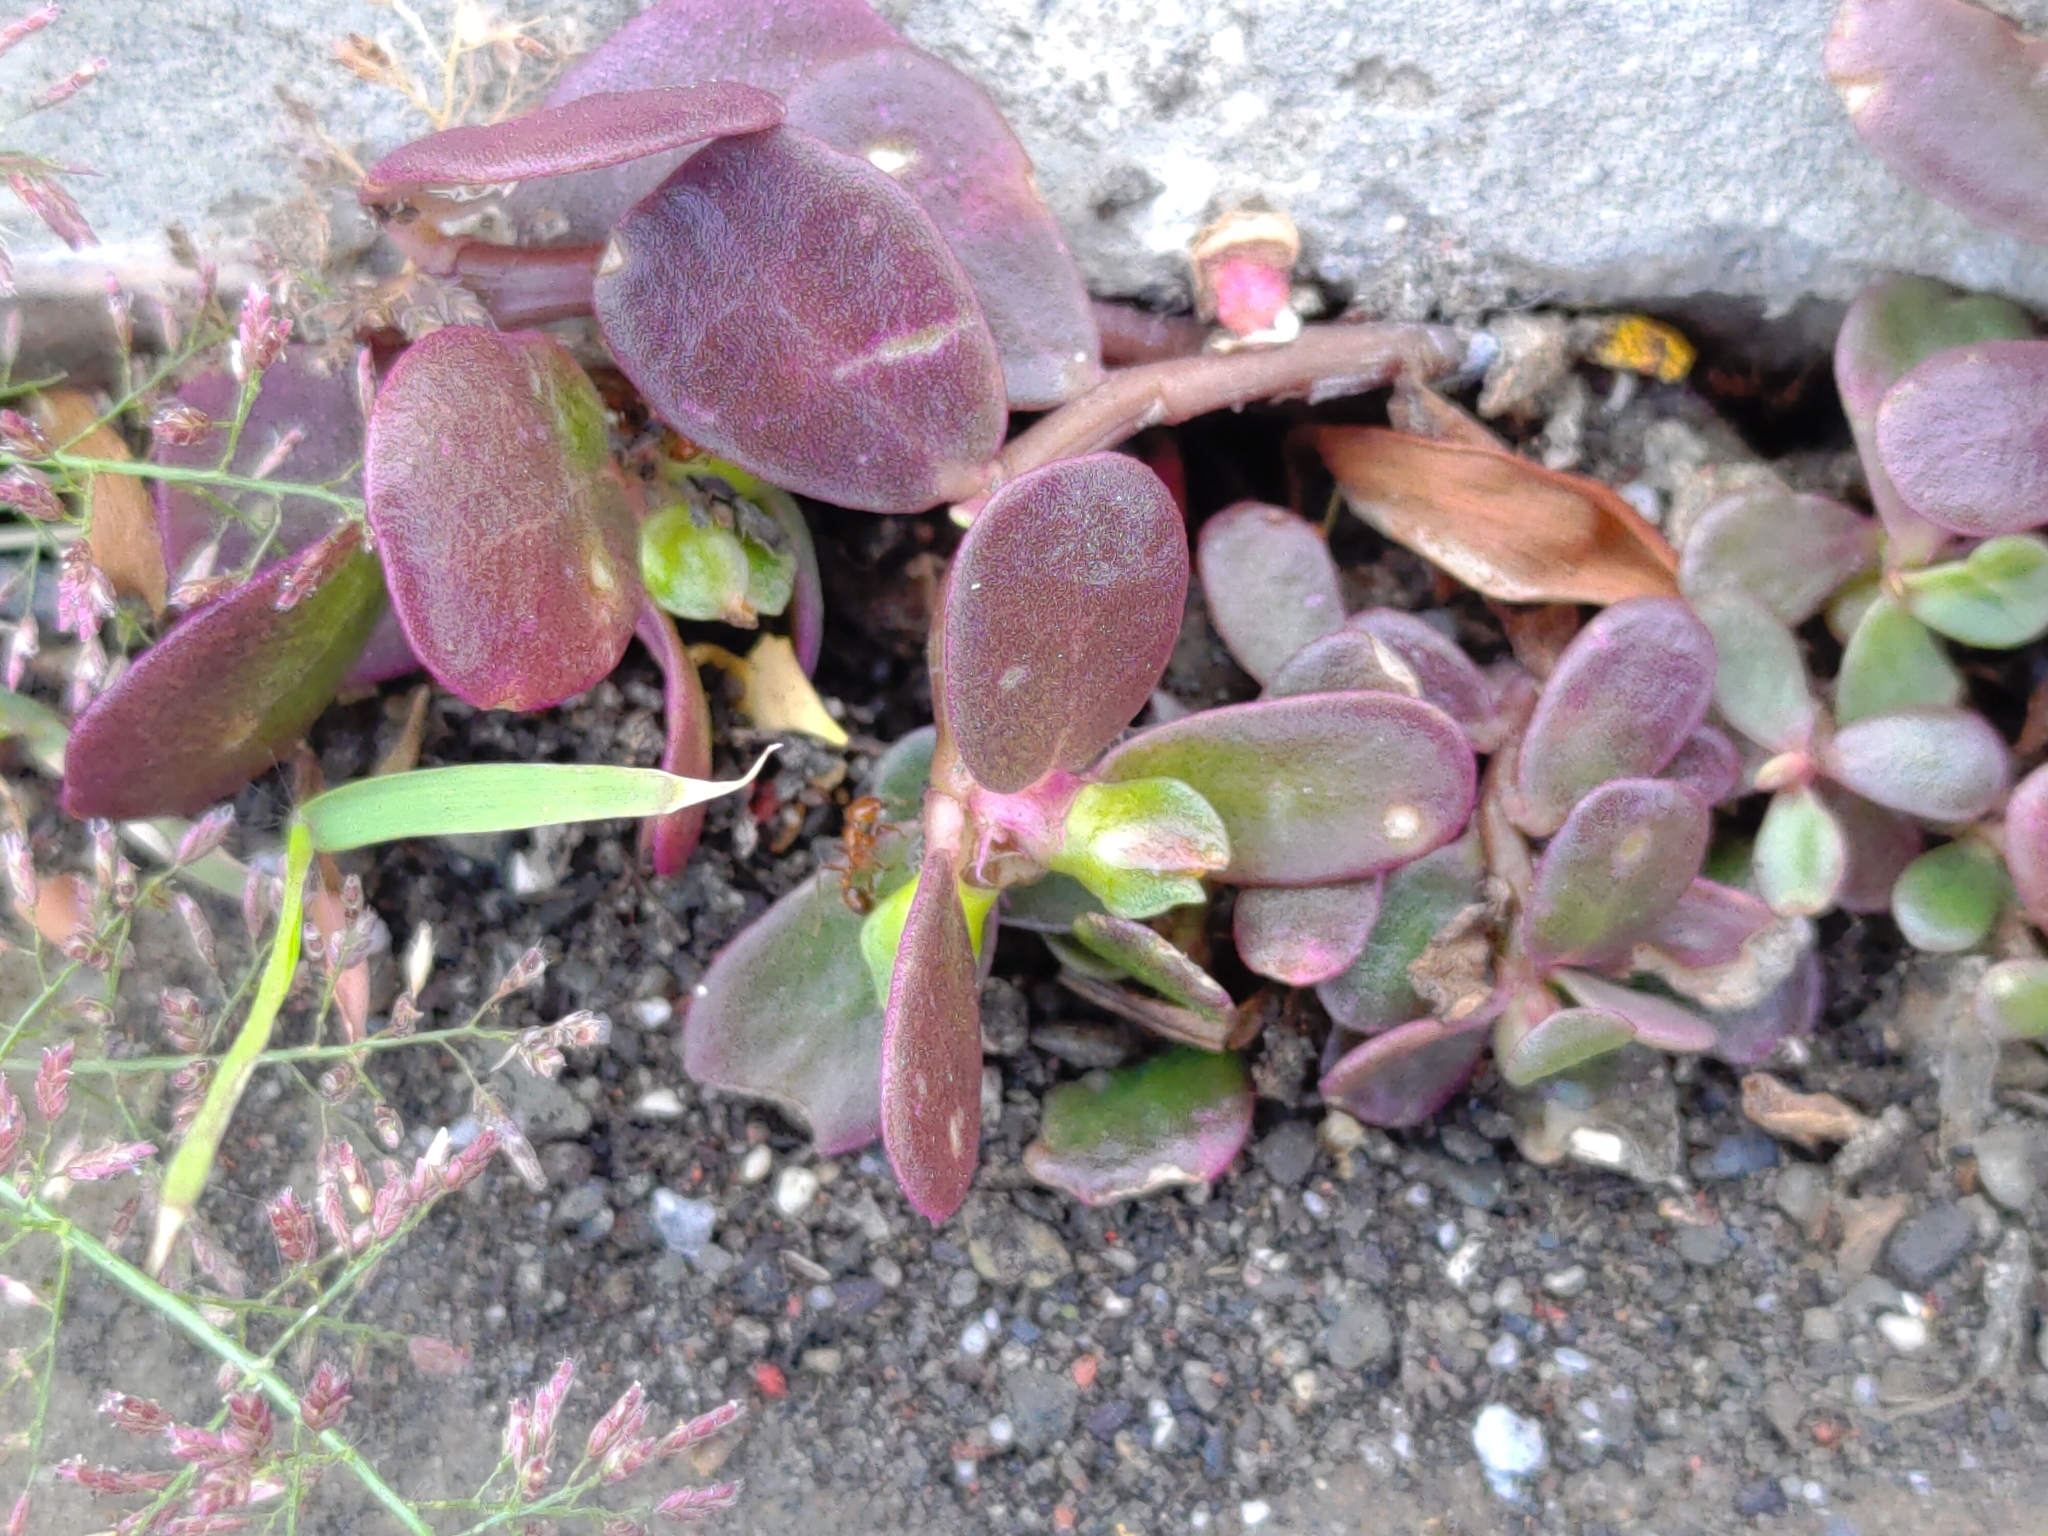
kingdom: Plantae
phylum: Tracheophyta
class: Magnoliopsida
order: Caryophyllales
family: Portulacaceae
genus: Portulaca
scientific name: Portulaca oleracea
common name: Common purslane
